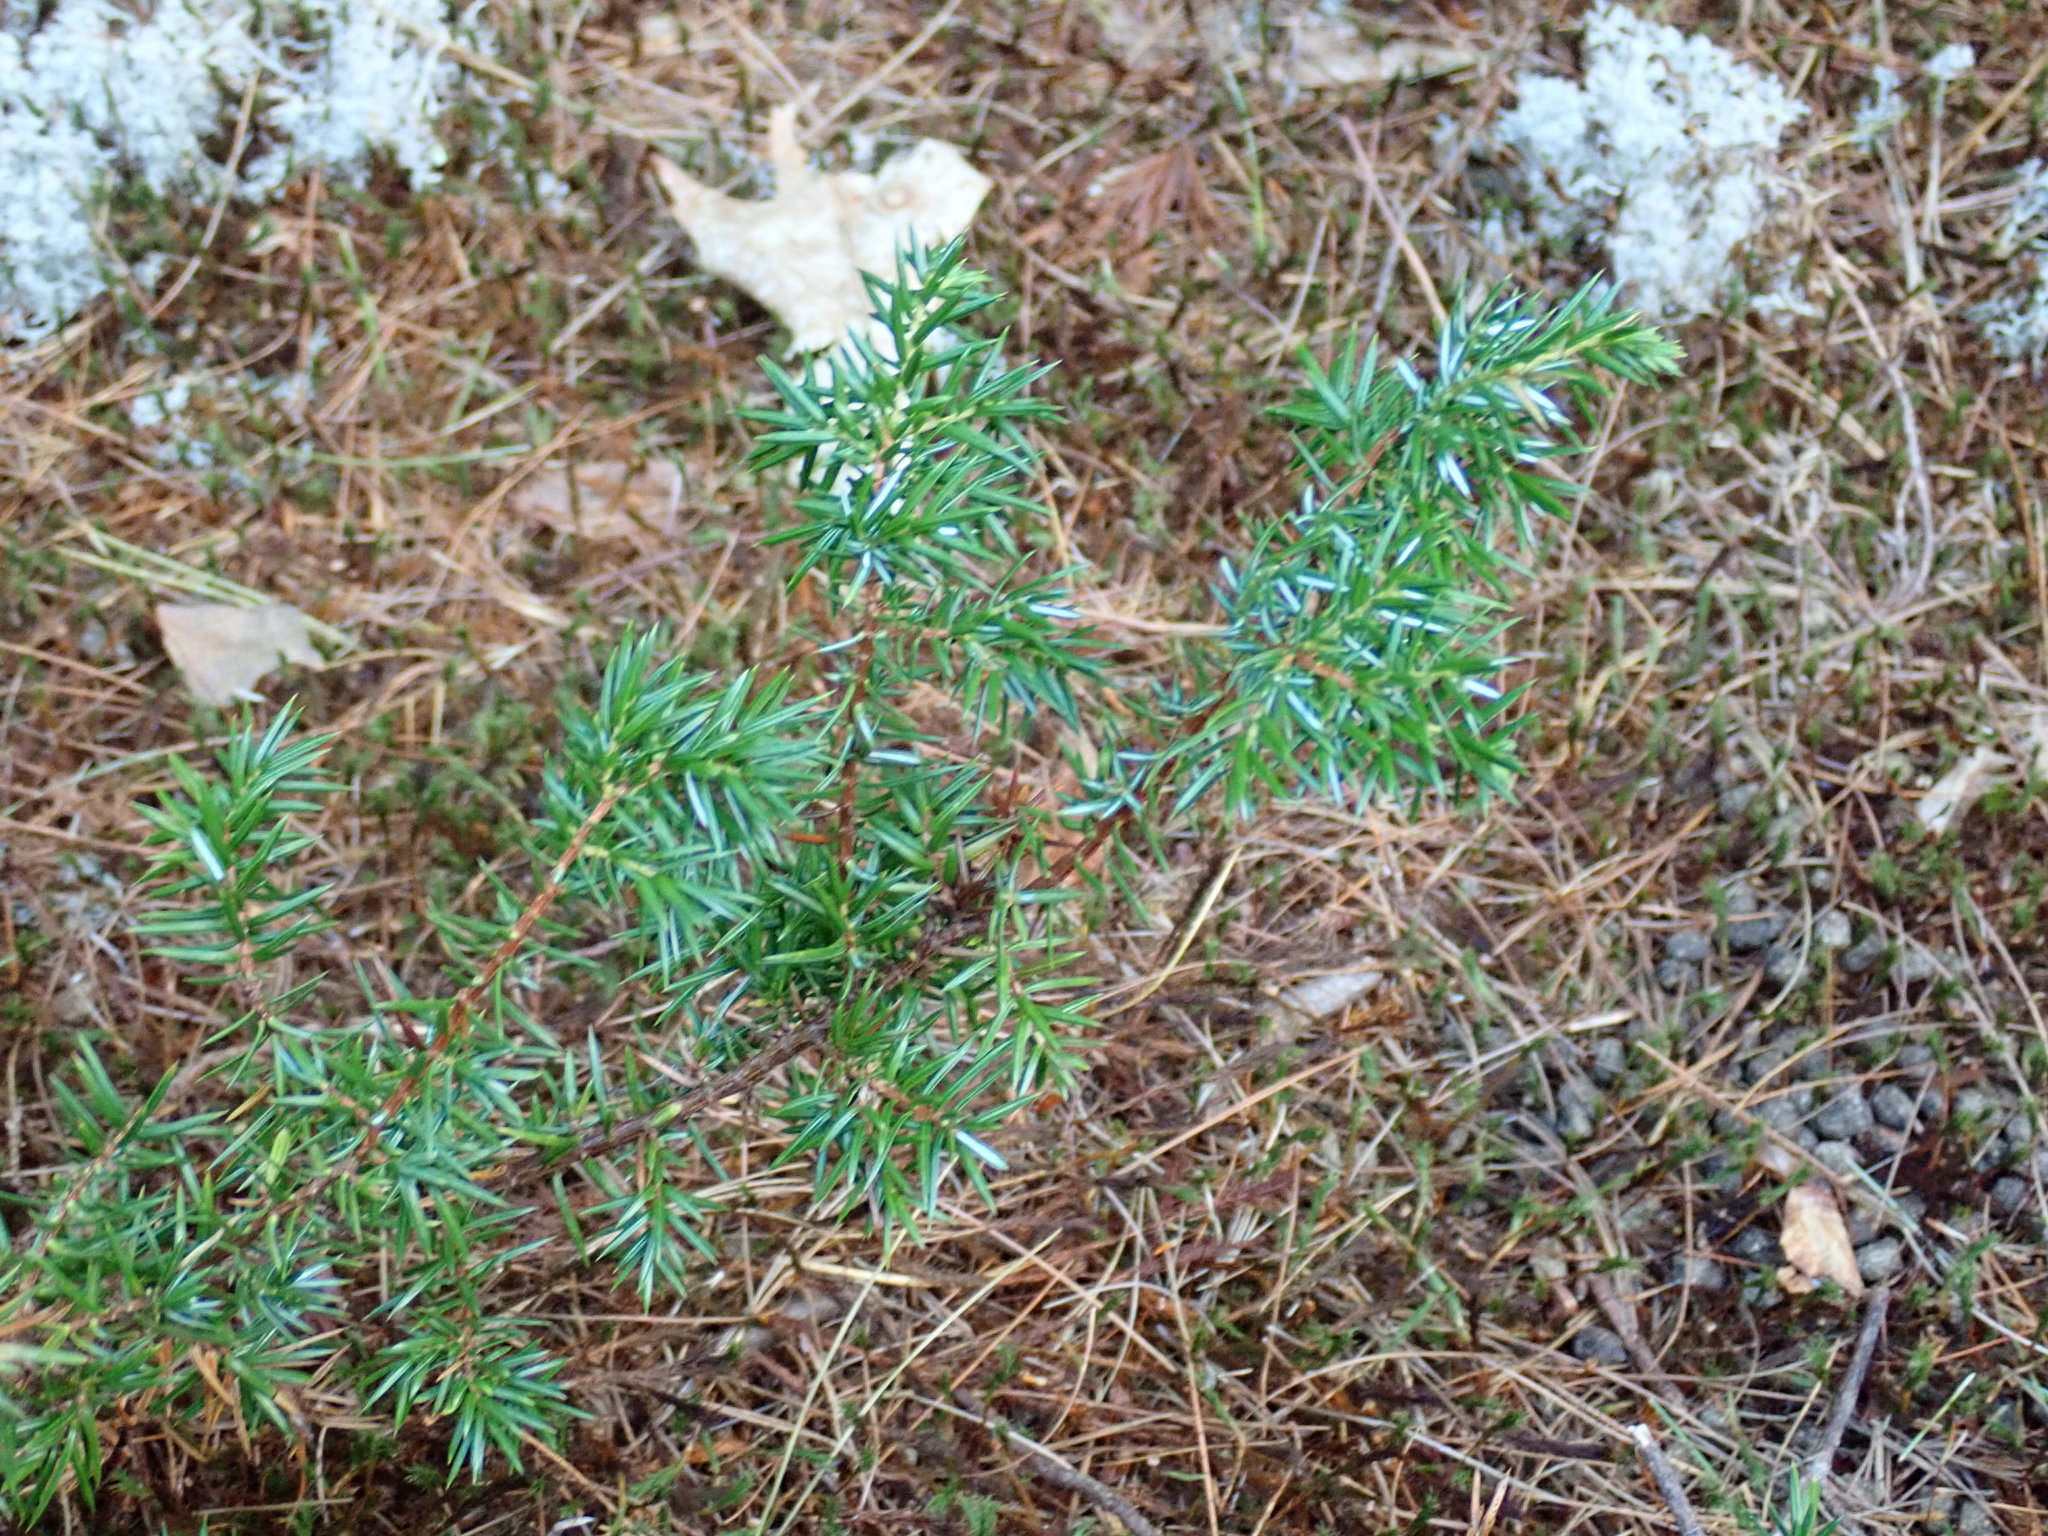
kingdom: Plantae
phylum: Tracheophyta
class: Pinopsida
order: Pinales
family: Cupressaceae
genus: Juniperus
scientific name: Juniperus communis
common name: Common juniper
